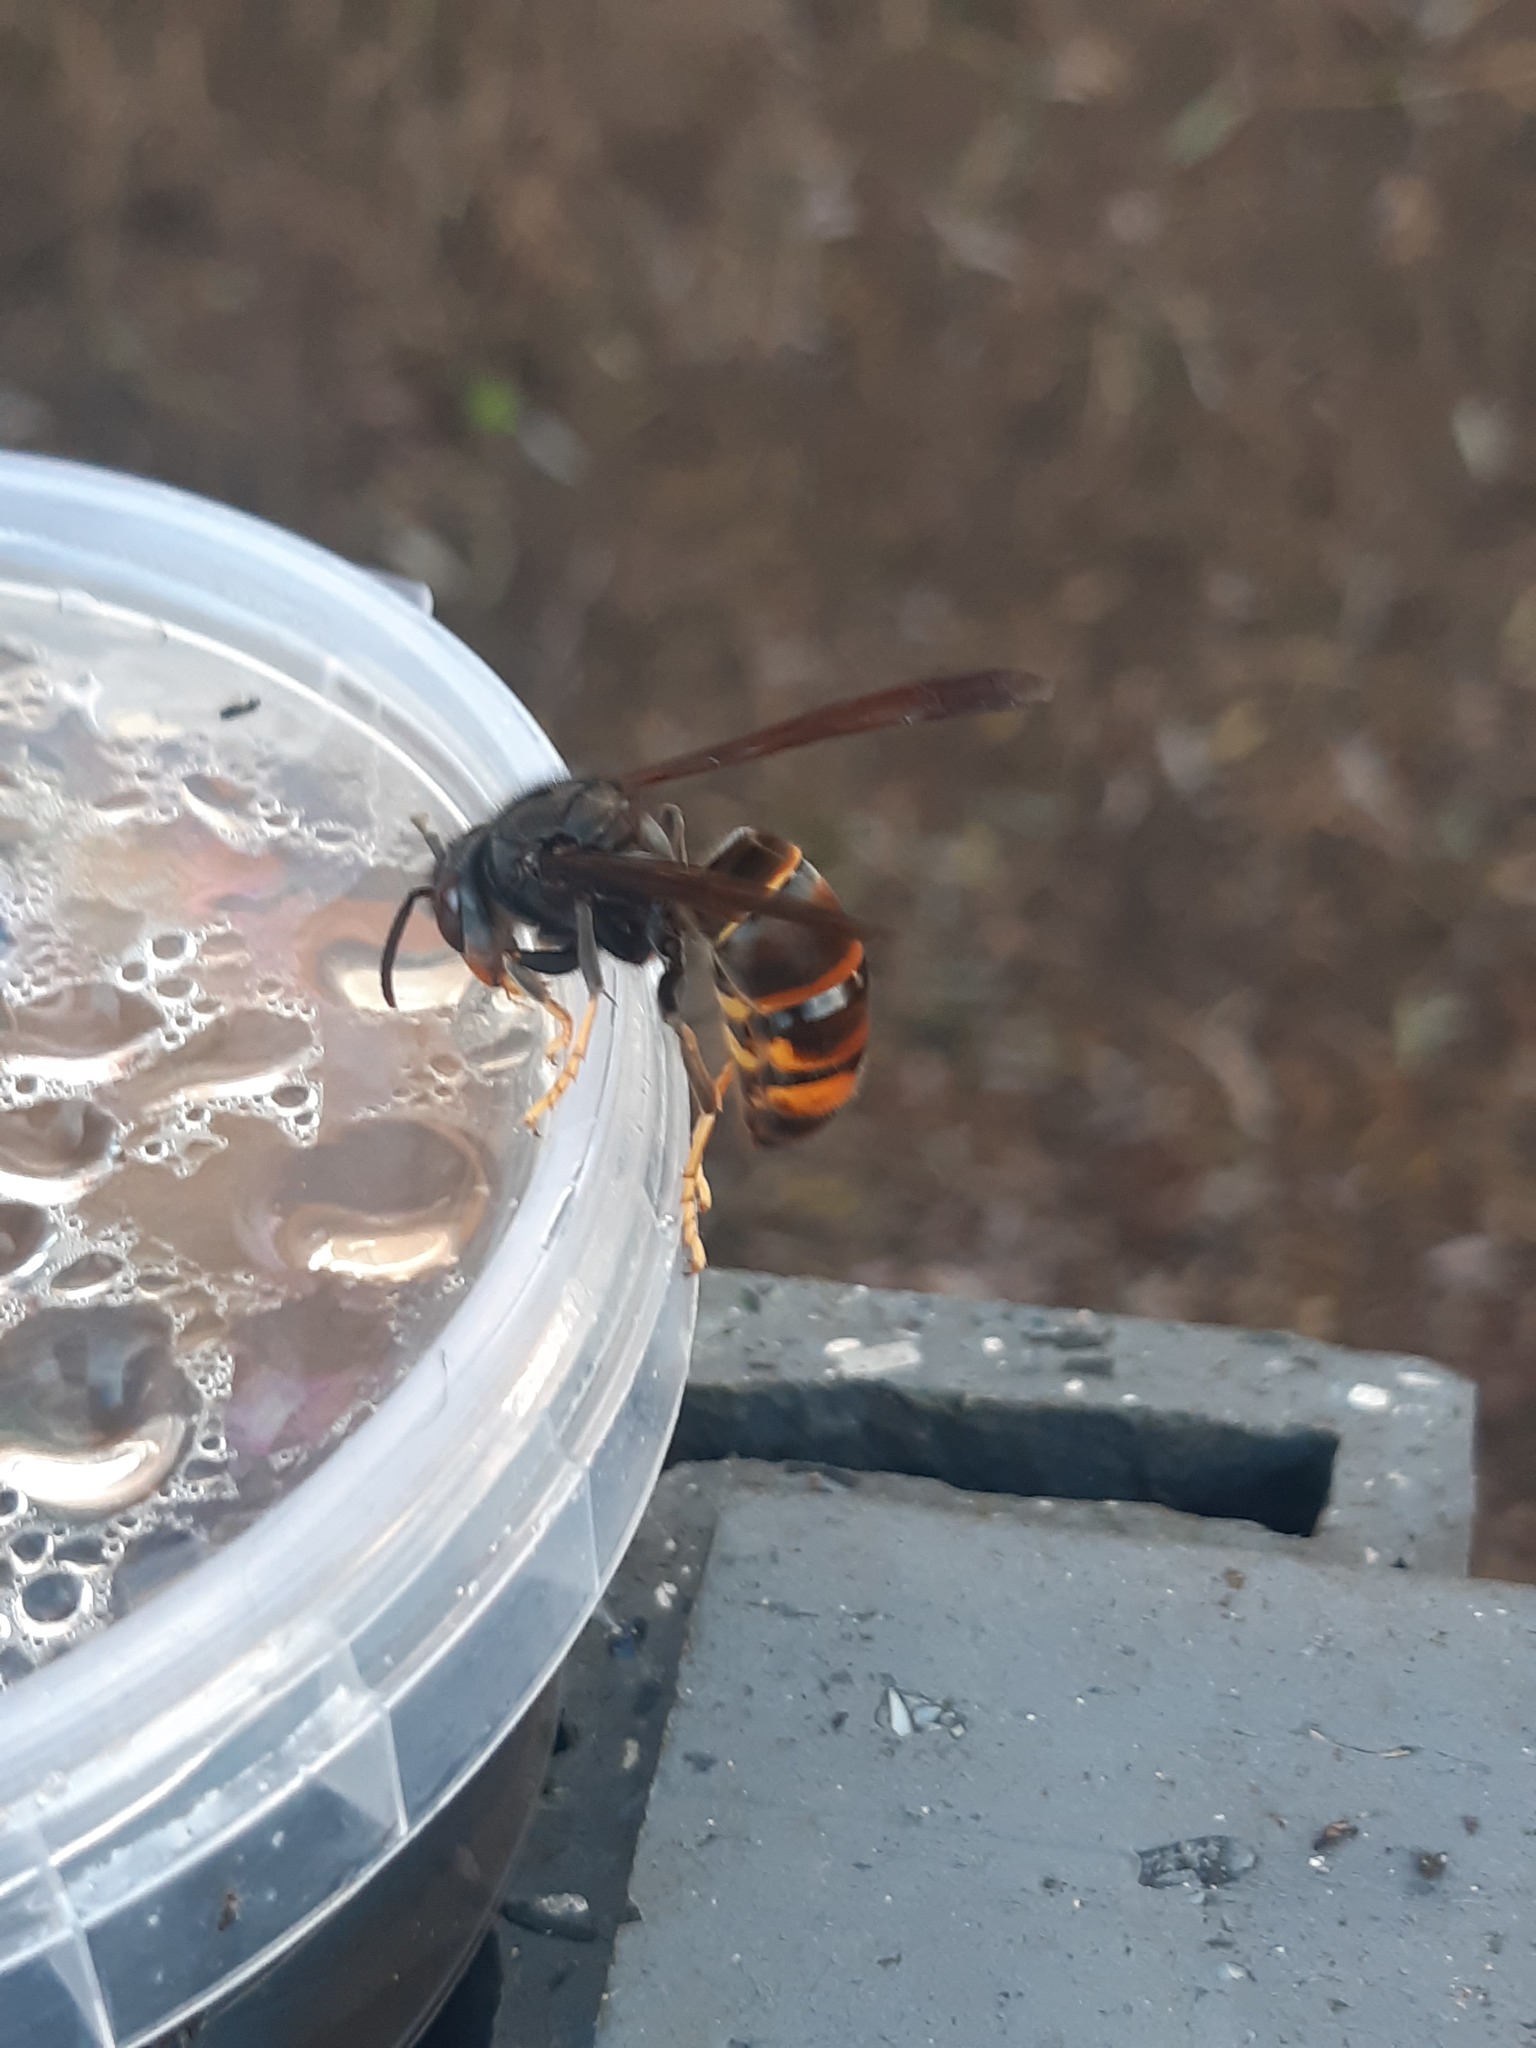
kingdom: Animalia
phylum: Arthropoda
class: Insecta
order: Hymenoptera
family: Vespidae
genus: Vespa
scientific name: Vespa velutina
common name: Asian hornet
